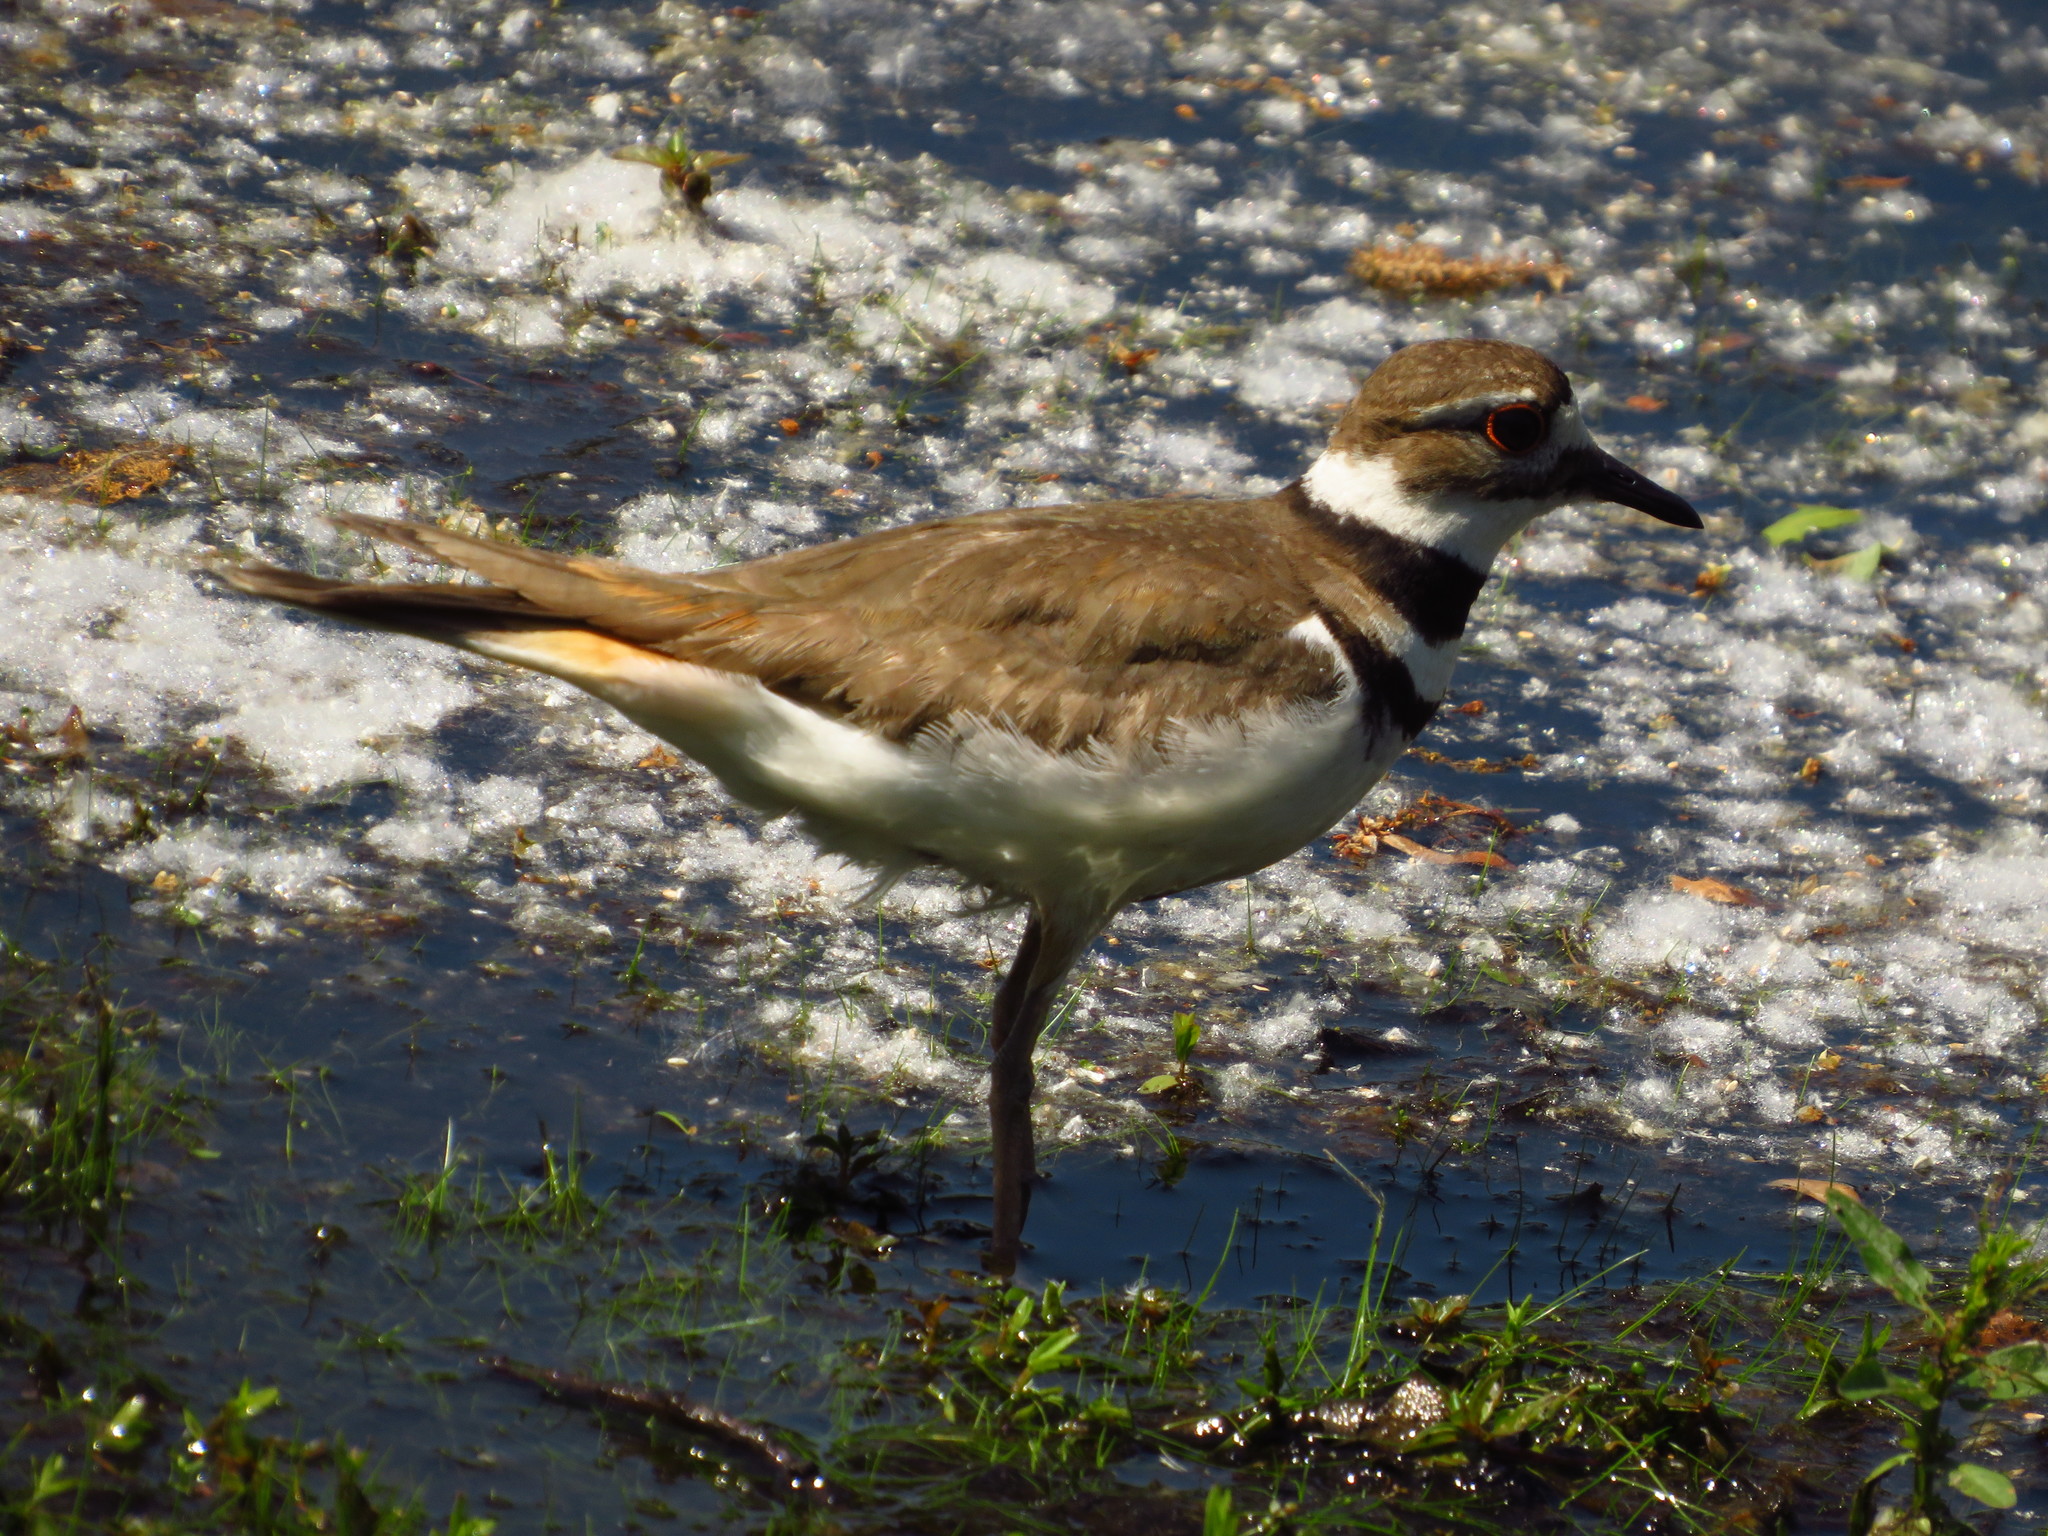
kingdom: Animalia
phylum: Chordata
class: Aves
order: Charadriiformes
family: Charadriidae
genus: Charadrius
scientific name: Charadrius vociferus
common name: Killdeer
